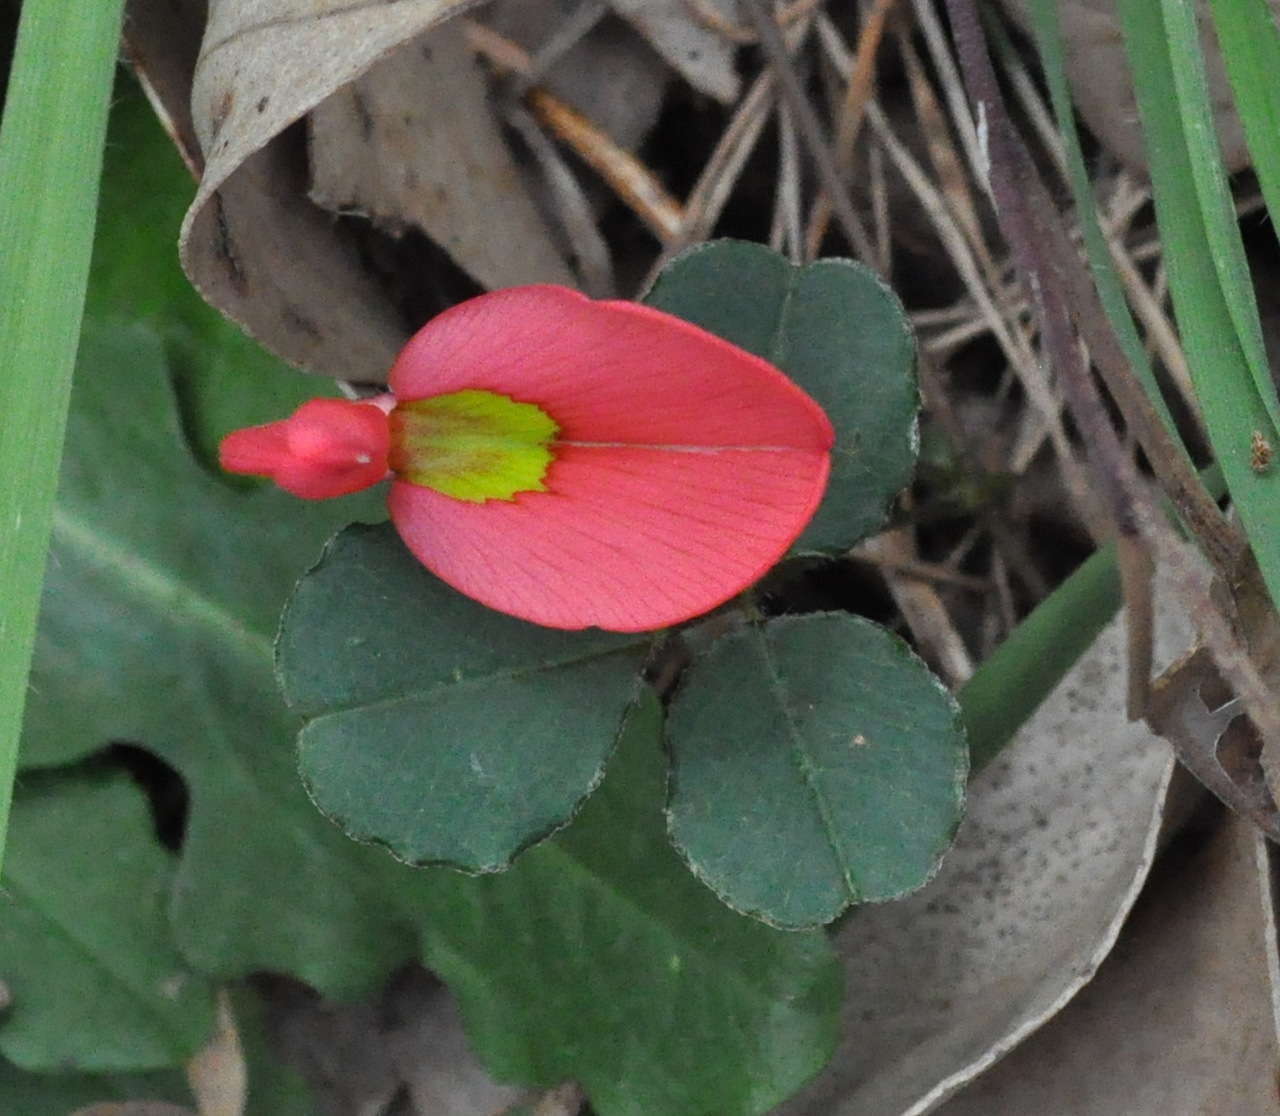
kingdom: Plantae
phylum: Tracheophyta
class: Magnoliopsida
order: Fabales
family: Fabaceae
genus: Kennedia
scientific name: Kennedia prostrata
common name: Running-postman
